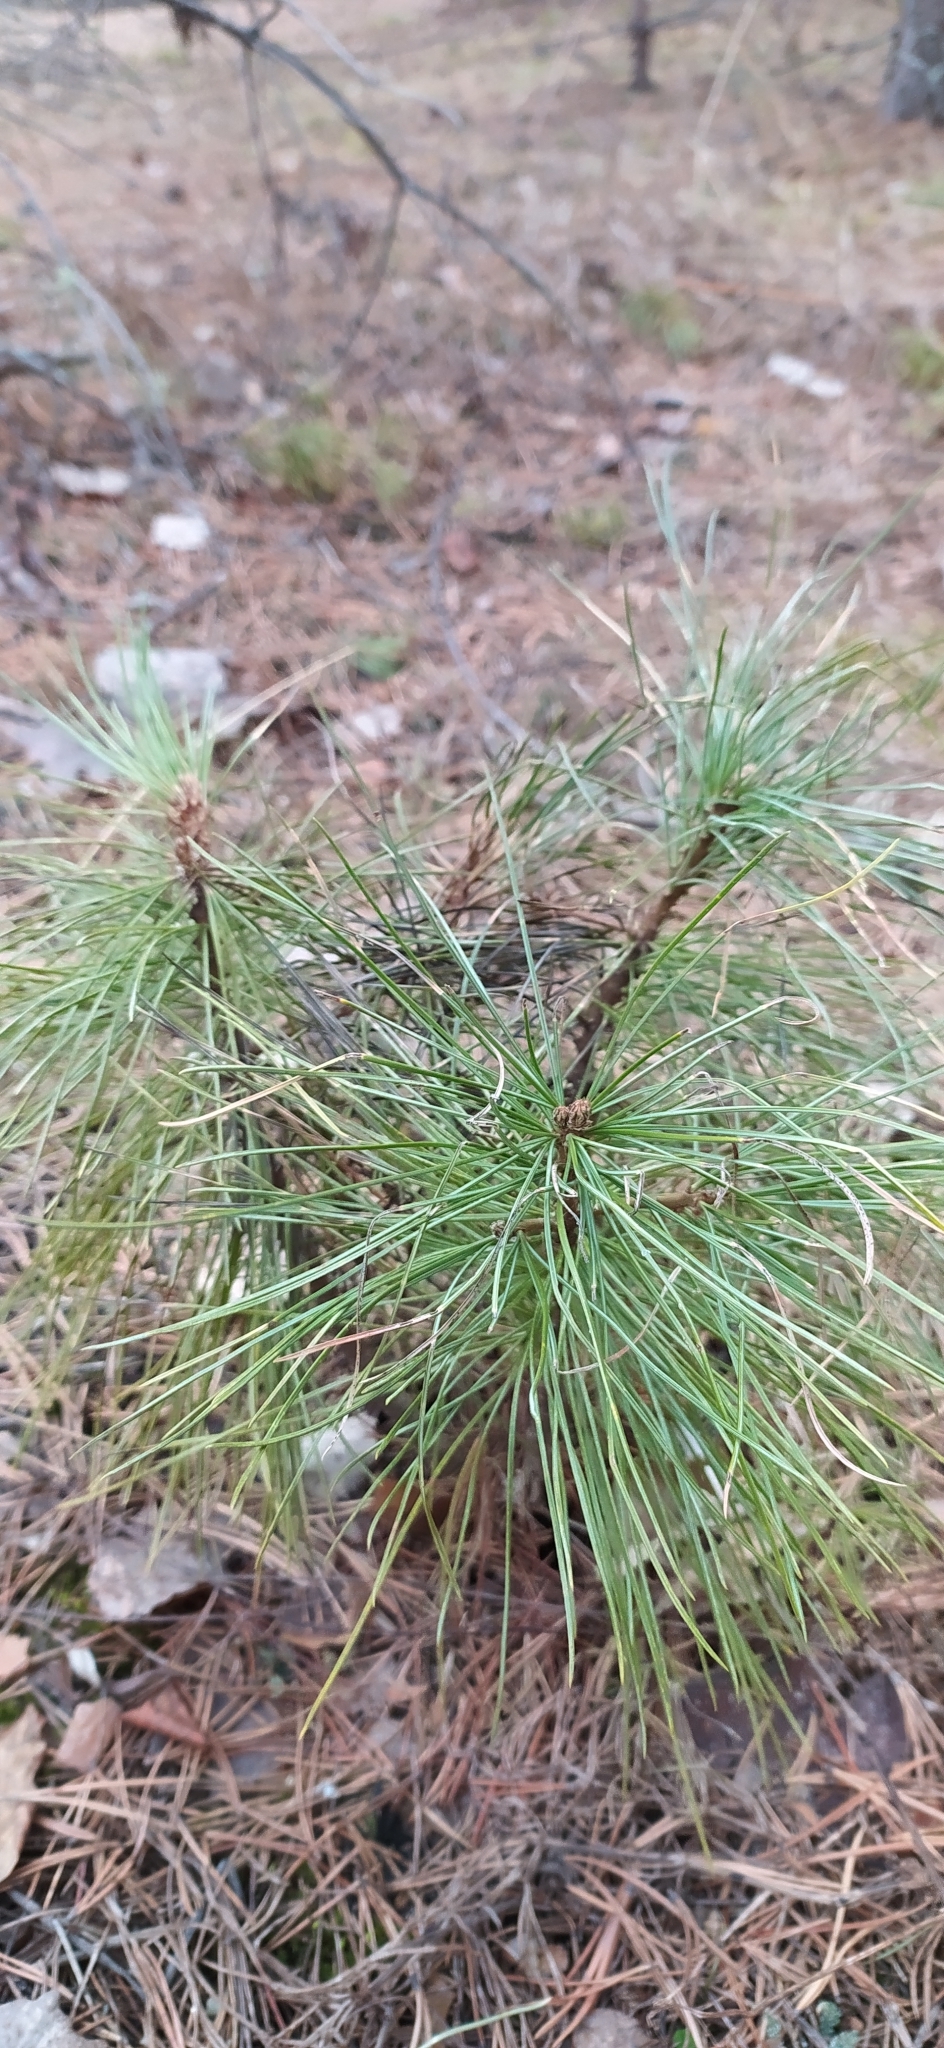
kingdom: Plantae
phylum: Tracheophyta
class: Pinopsida
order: Pinales
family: Pinaceae
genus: Pinus
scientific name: Pinus sibirica
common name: Siberian pine
